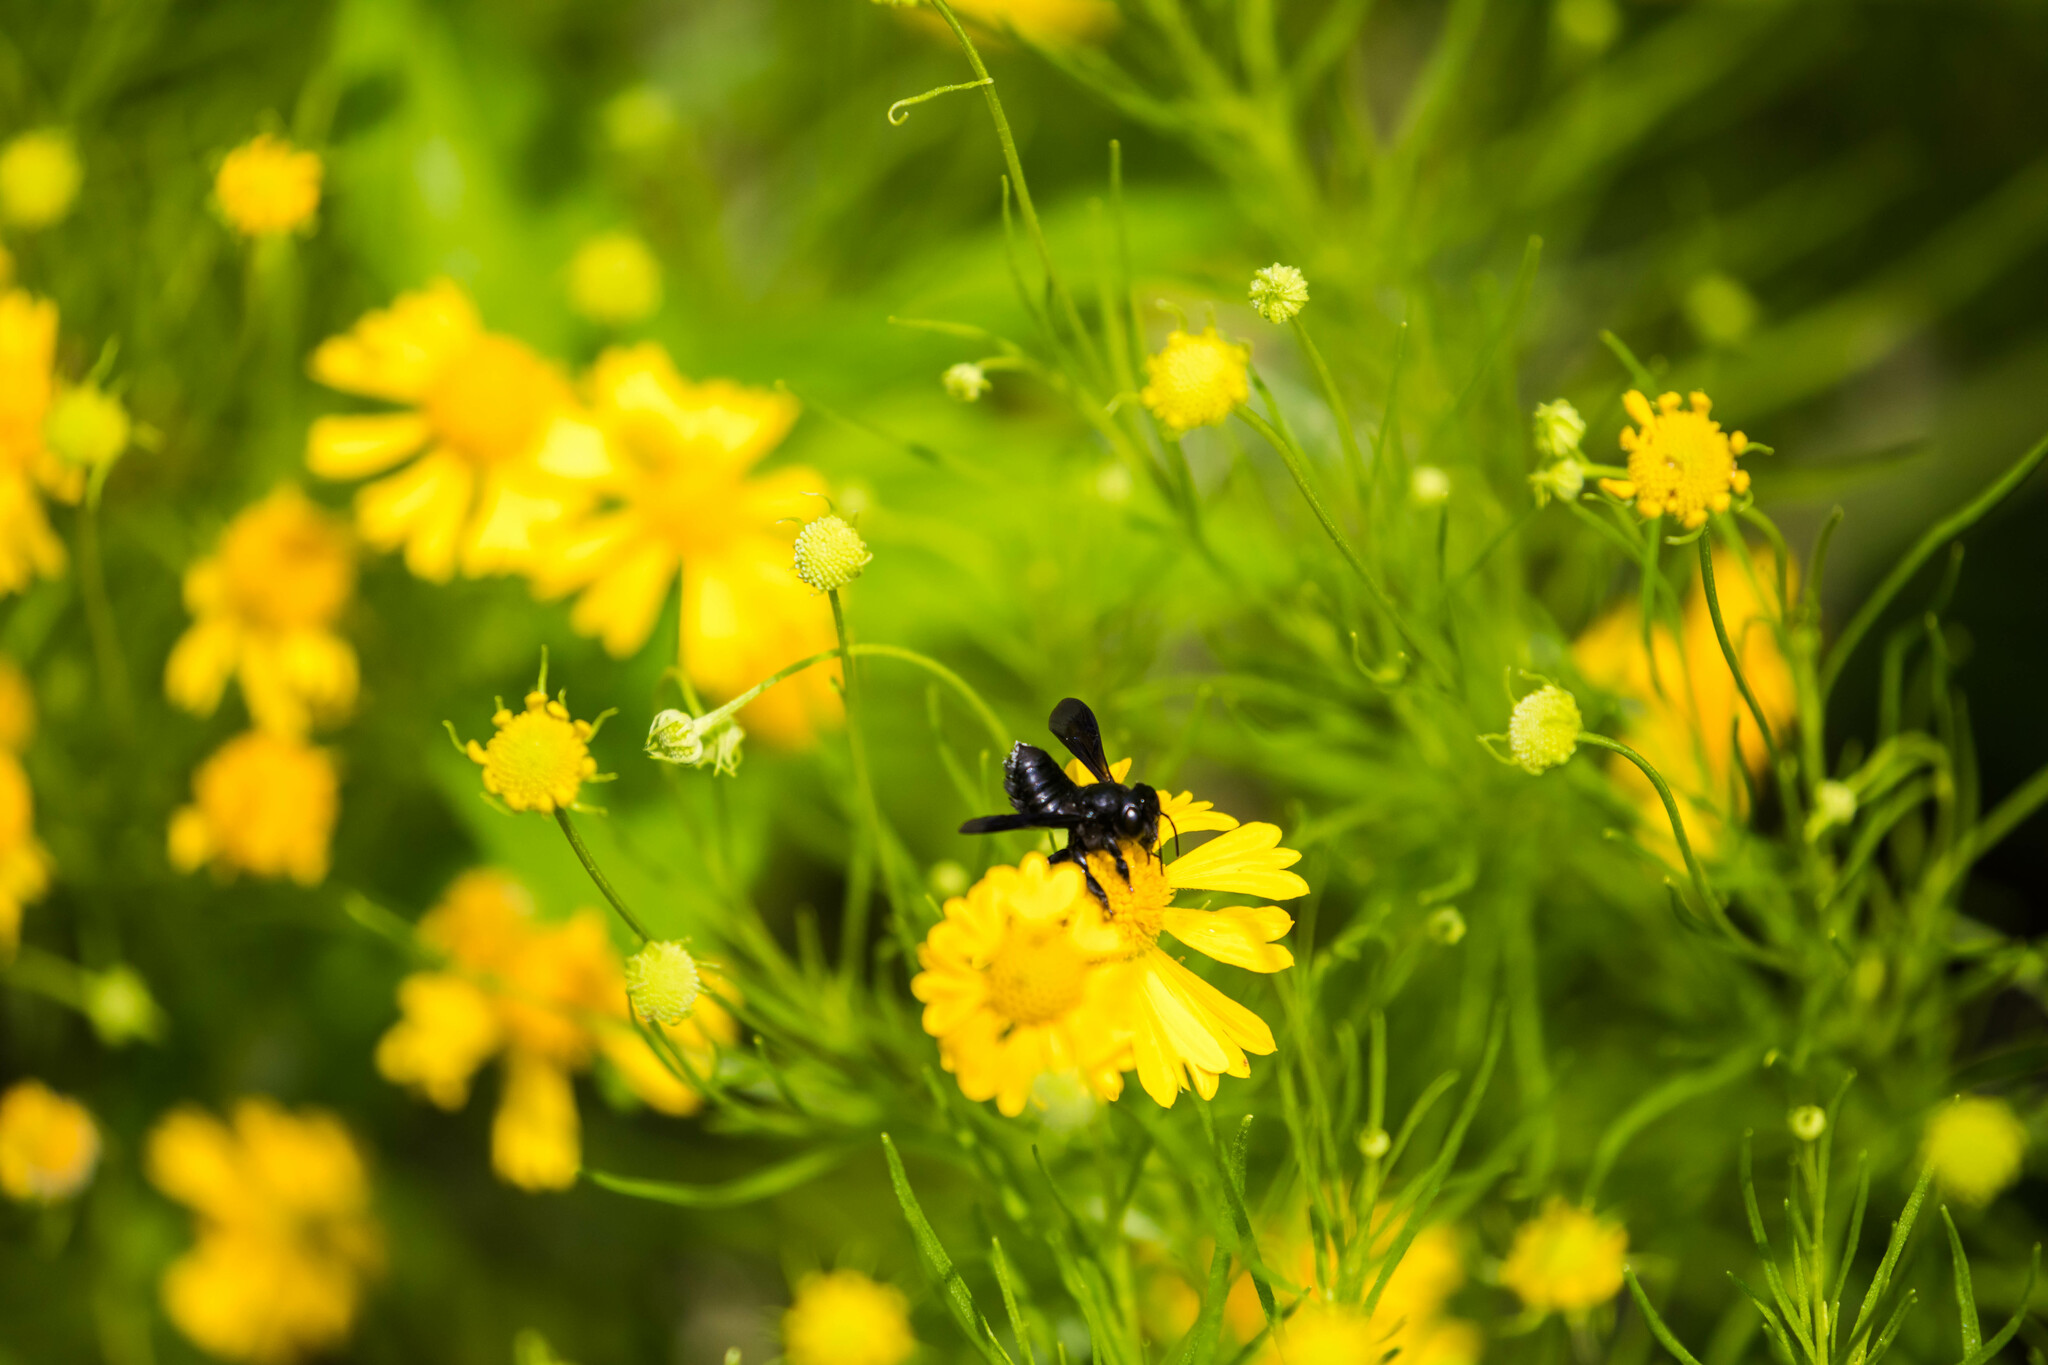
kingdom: Animalia
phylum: Arthropoda
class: Insecta
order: Hymenoptera
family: Megachilidae
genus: Megachile
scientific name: Megachile xylocopoides
